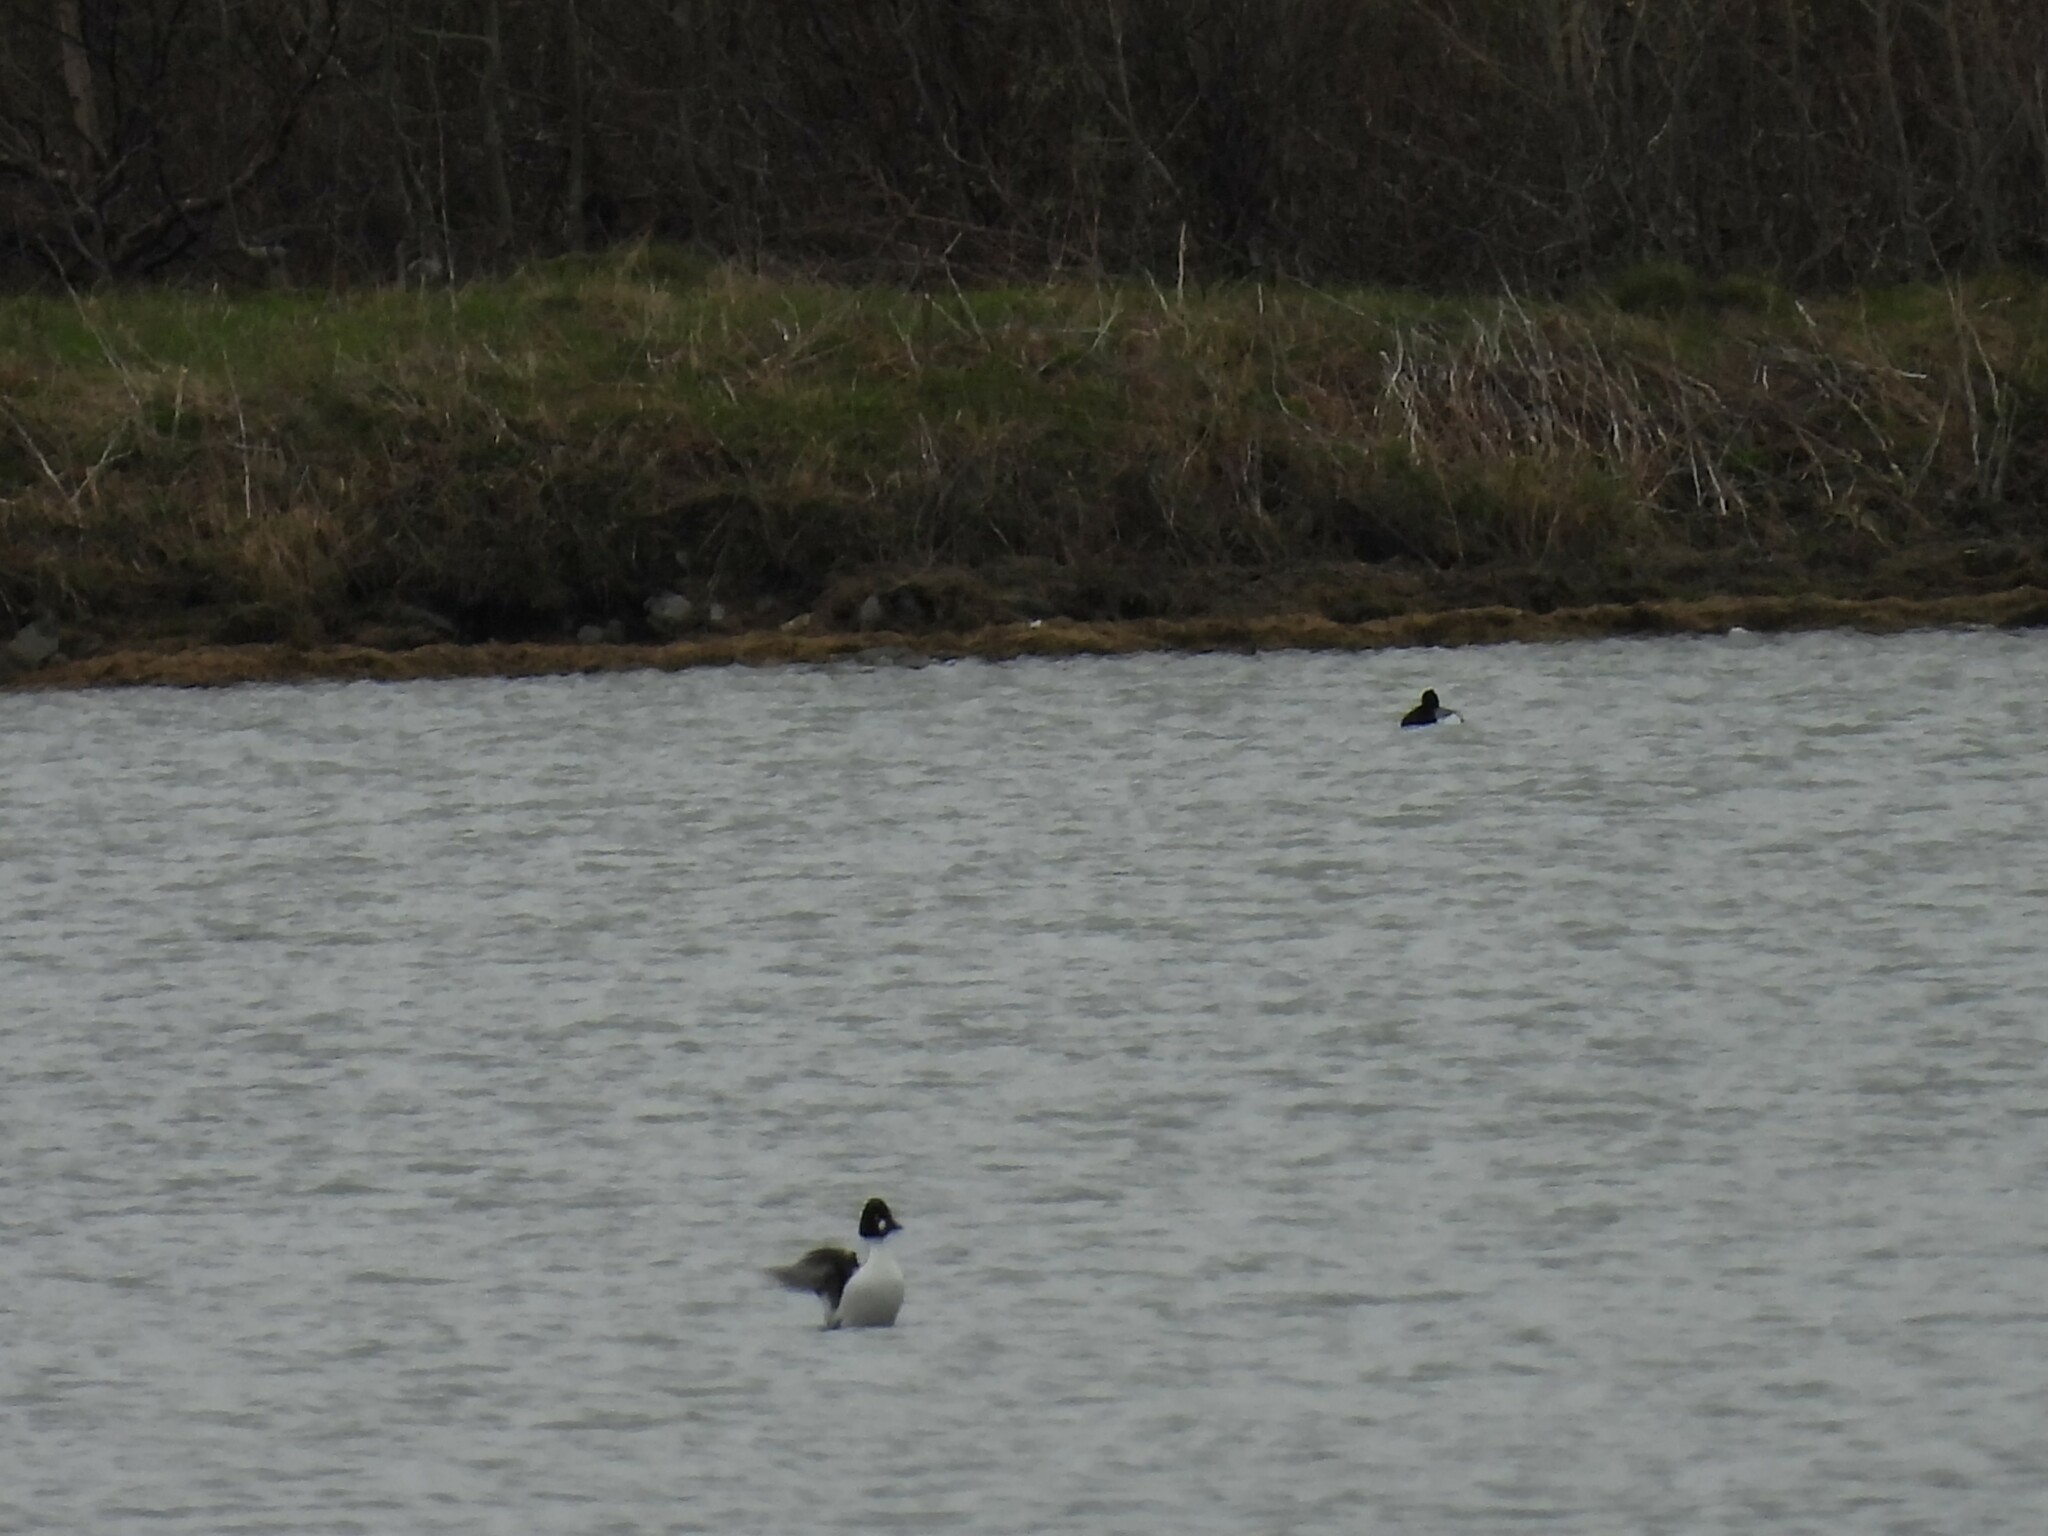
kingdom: Animalia
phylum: Chordata
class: Aves
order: Anseriformes
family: Anatidae
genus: Bucephala
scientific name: Bucephala clangula
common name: Common goldeneye
